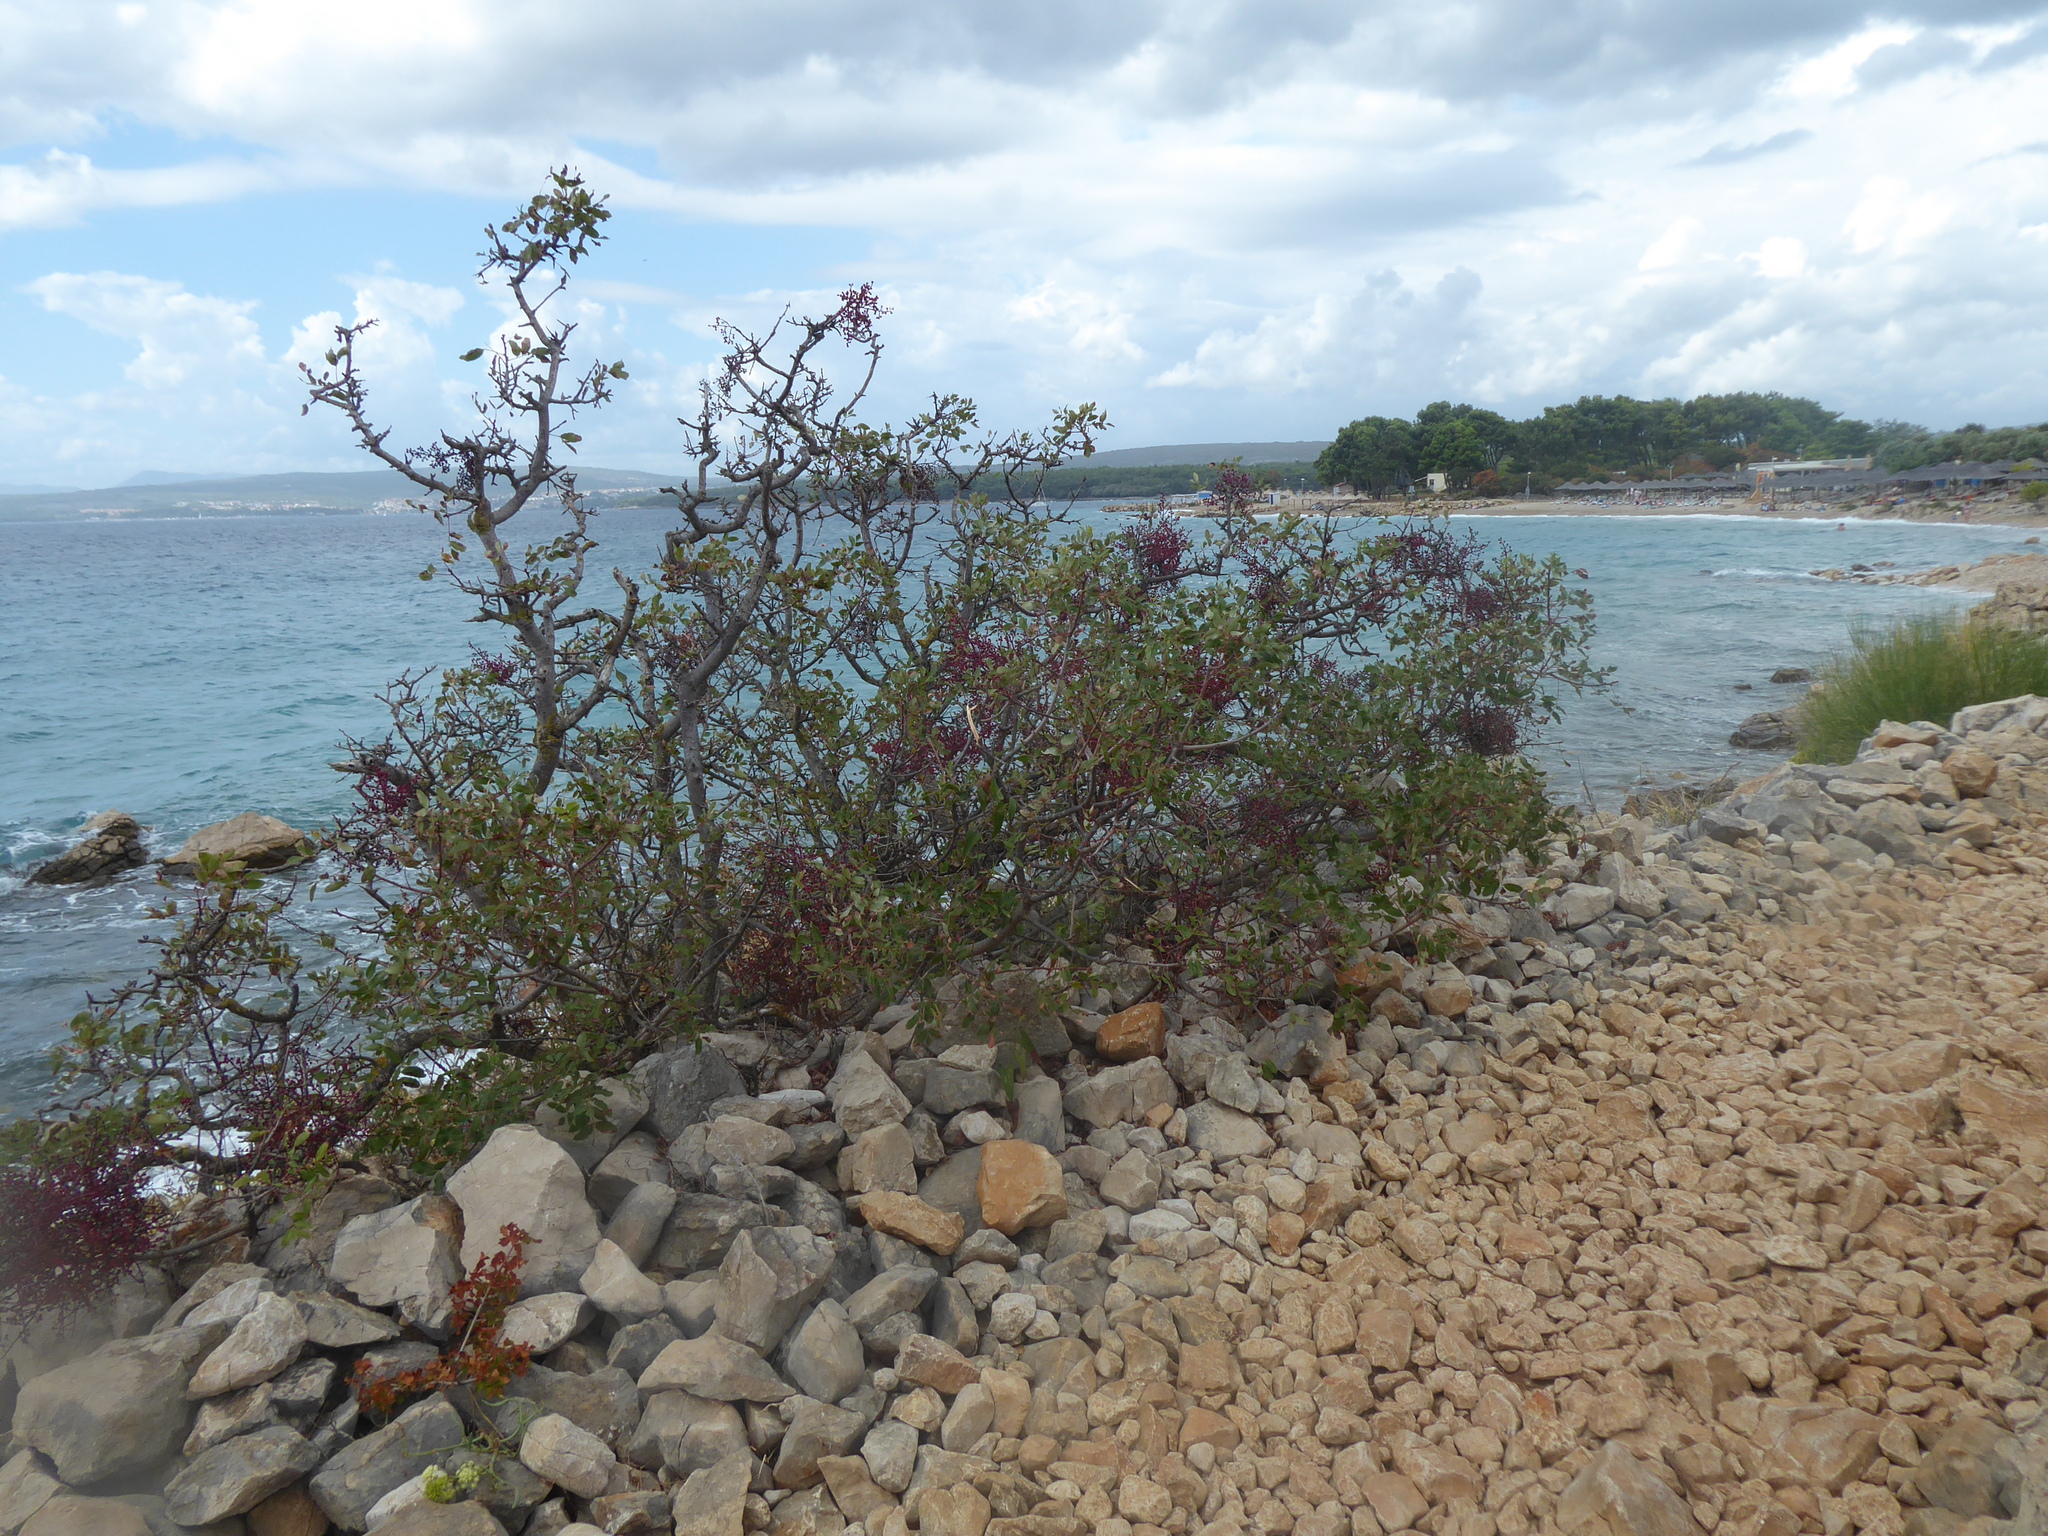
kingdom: Plantae
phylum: Tracheophyta
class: Magnoliopsida
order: Sapindales
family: Anacardiaceae
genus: Pistacia
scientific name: Pistacia terebinthus
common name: Terebinth
